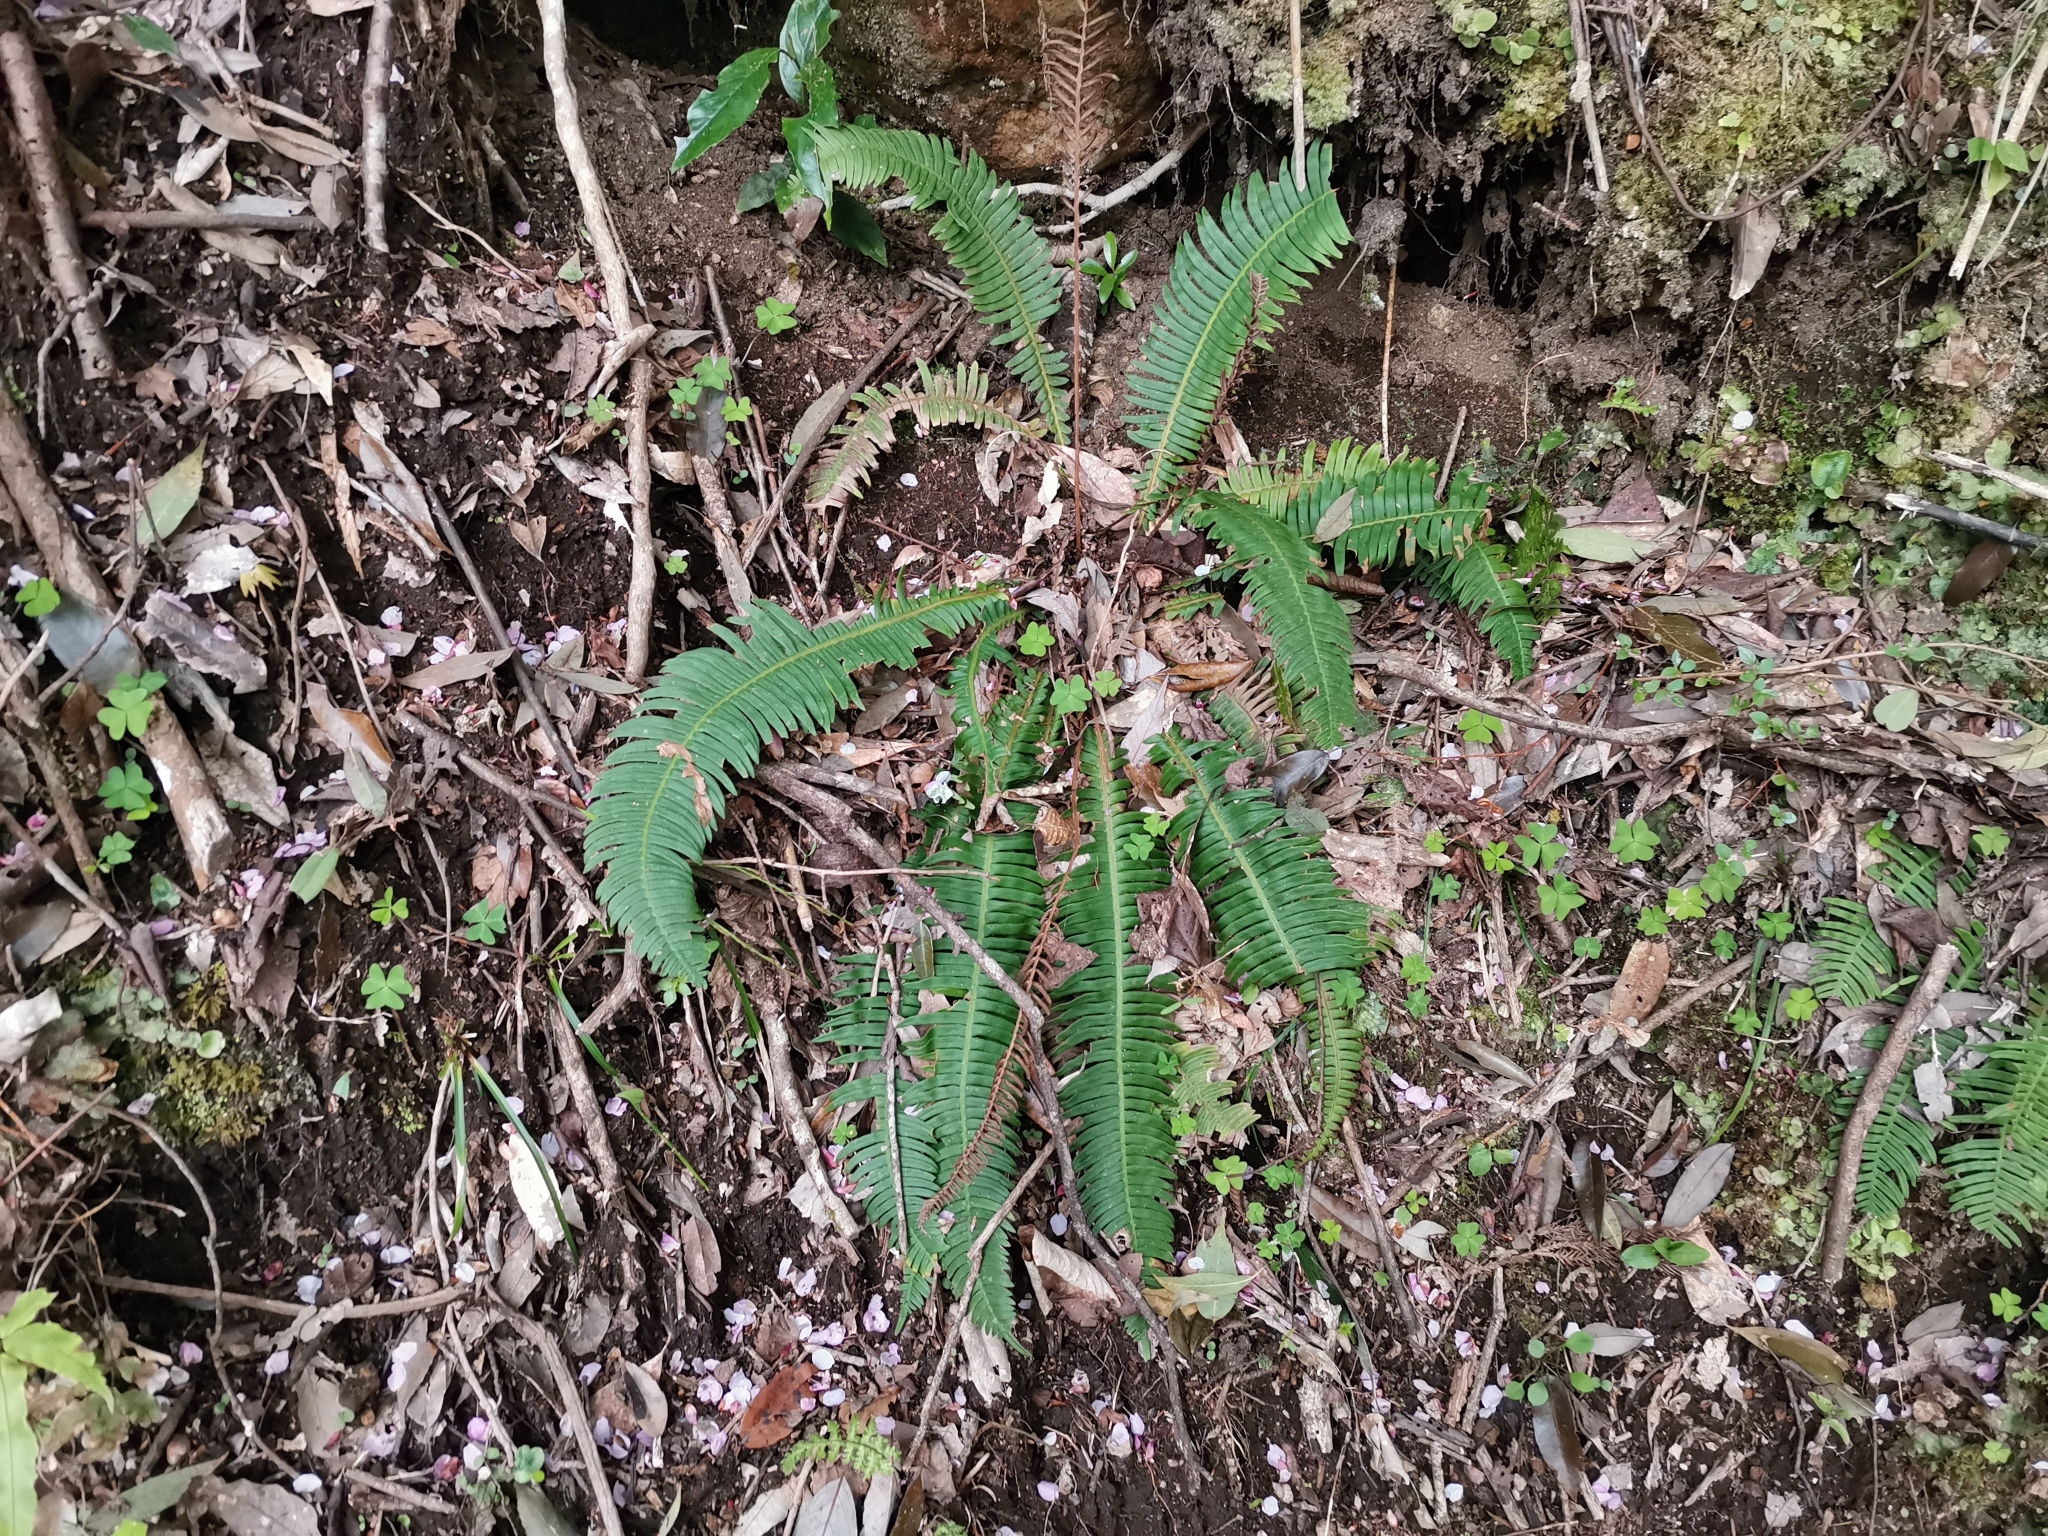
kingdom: Plantae
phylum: Tracheophyta
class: Polypodiopsida
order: Polypodiales
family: Blechnaceae
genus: Spicantopsis
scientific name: Spicantopsis niponica
